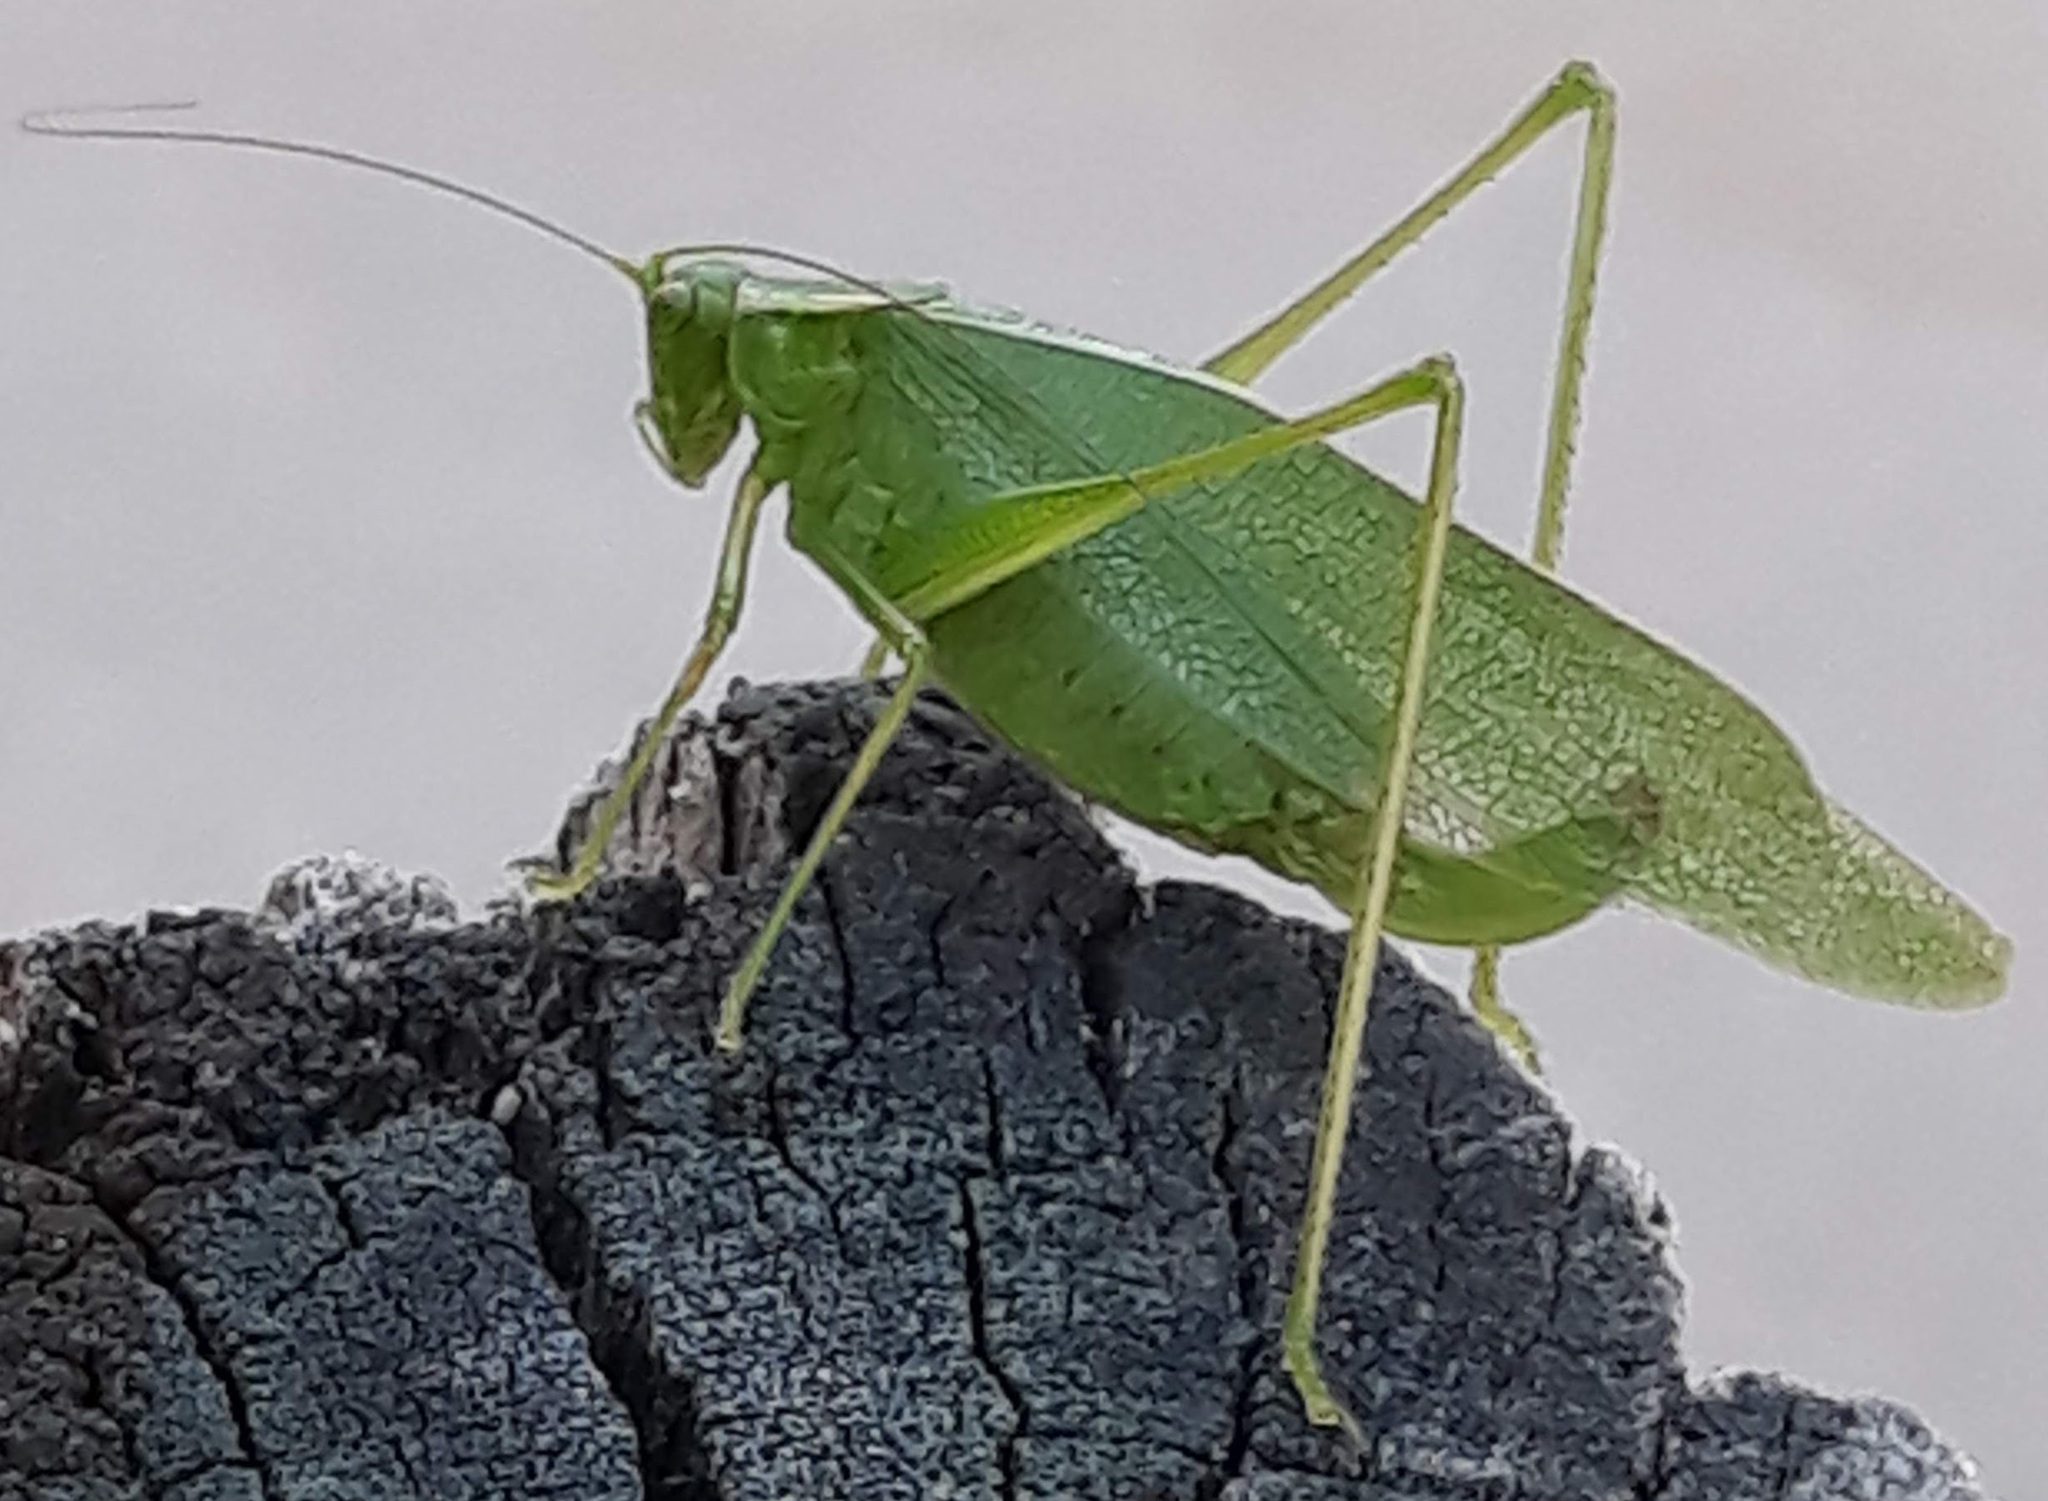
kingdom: Animalia
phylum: Arthropoda
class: Insecta
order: Orthoptera
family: Tettigoniidae
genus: Scudderia
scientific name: Scudderia septentrionalis
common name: Northern bush-katydid
